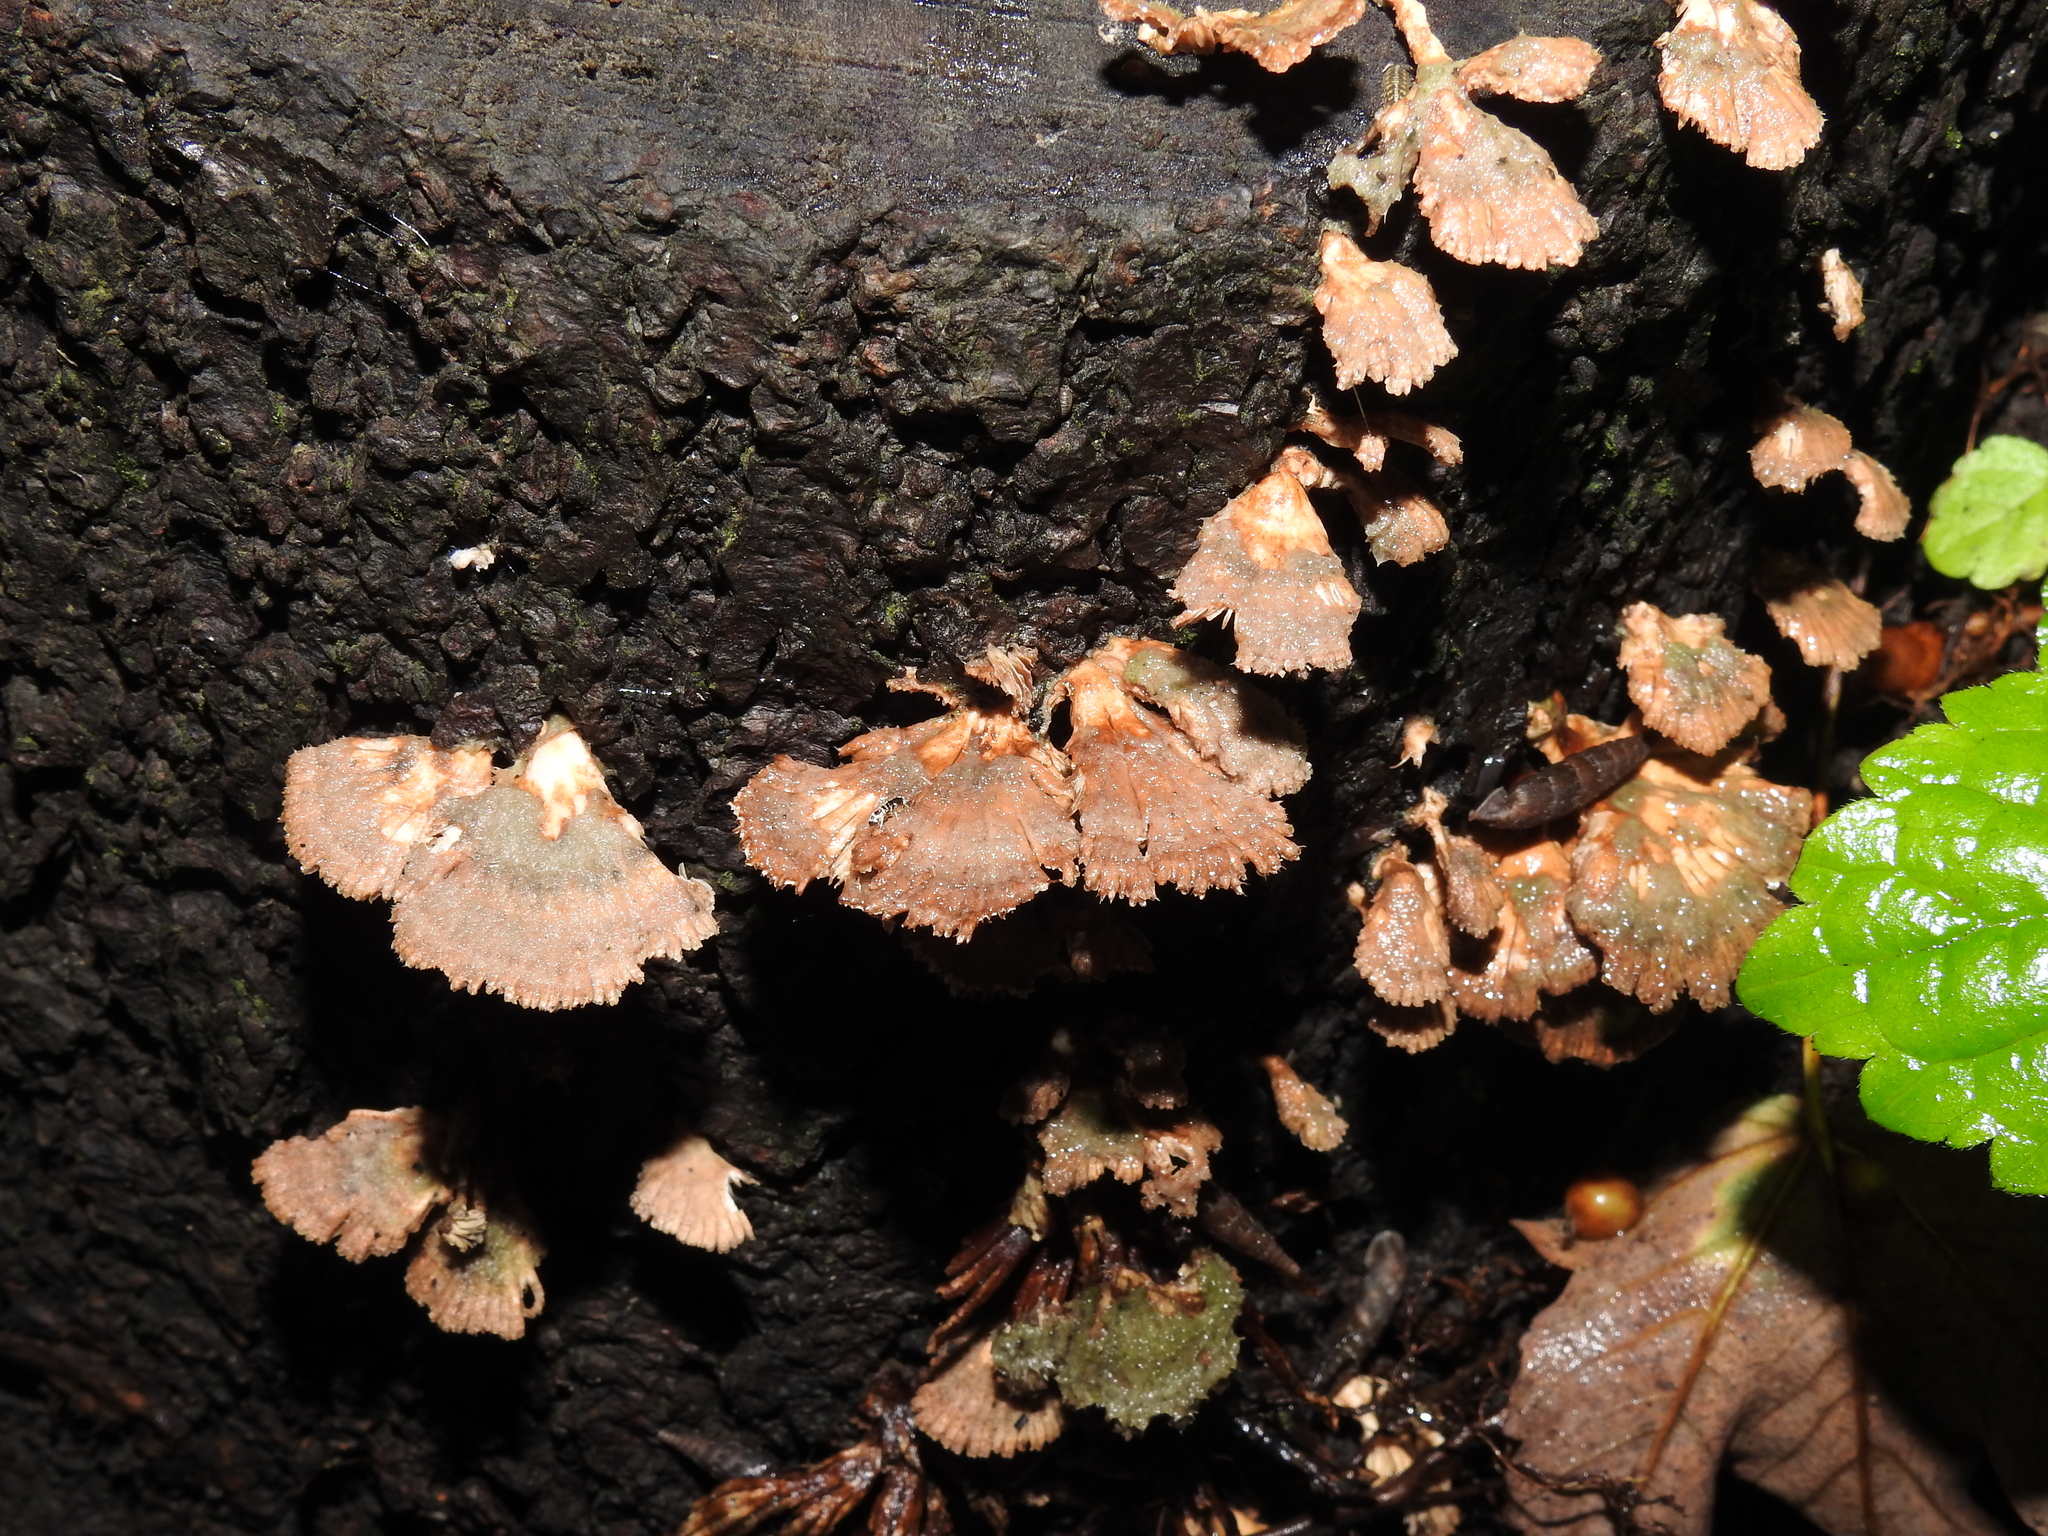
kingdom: Fungi
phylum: Basidiomycota
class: Agaricomycetes
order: Agaricales
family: Schizophyllaceae
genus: Schizophyllum
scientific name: Schizophyllum commune
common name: Common porecrust
